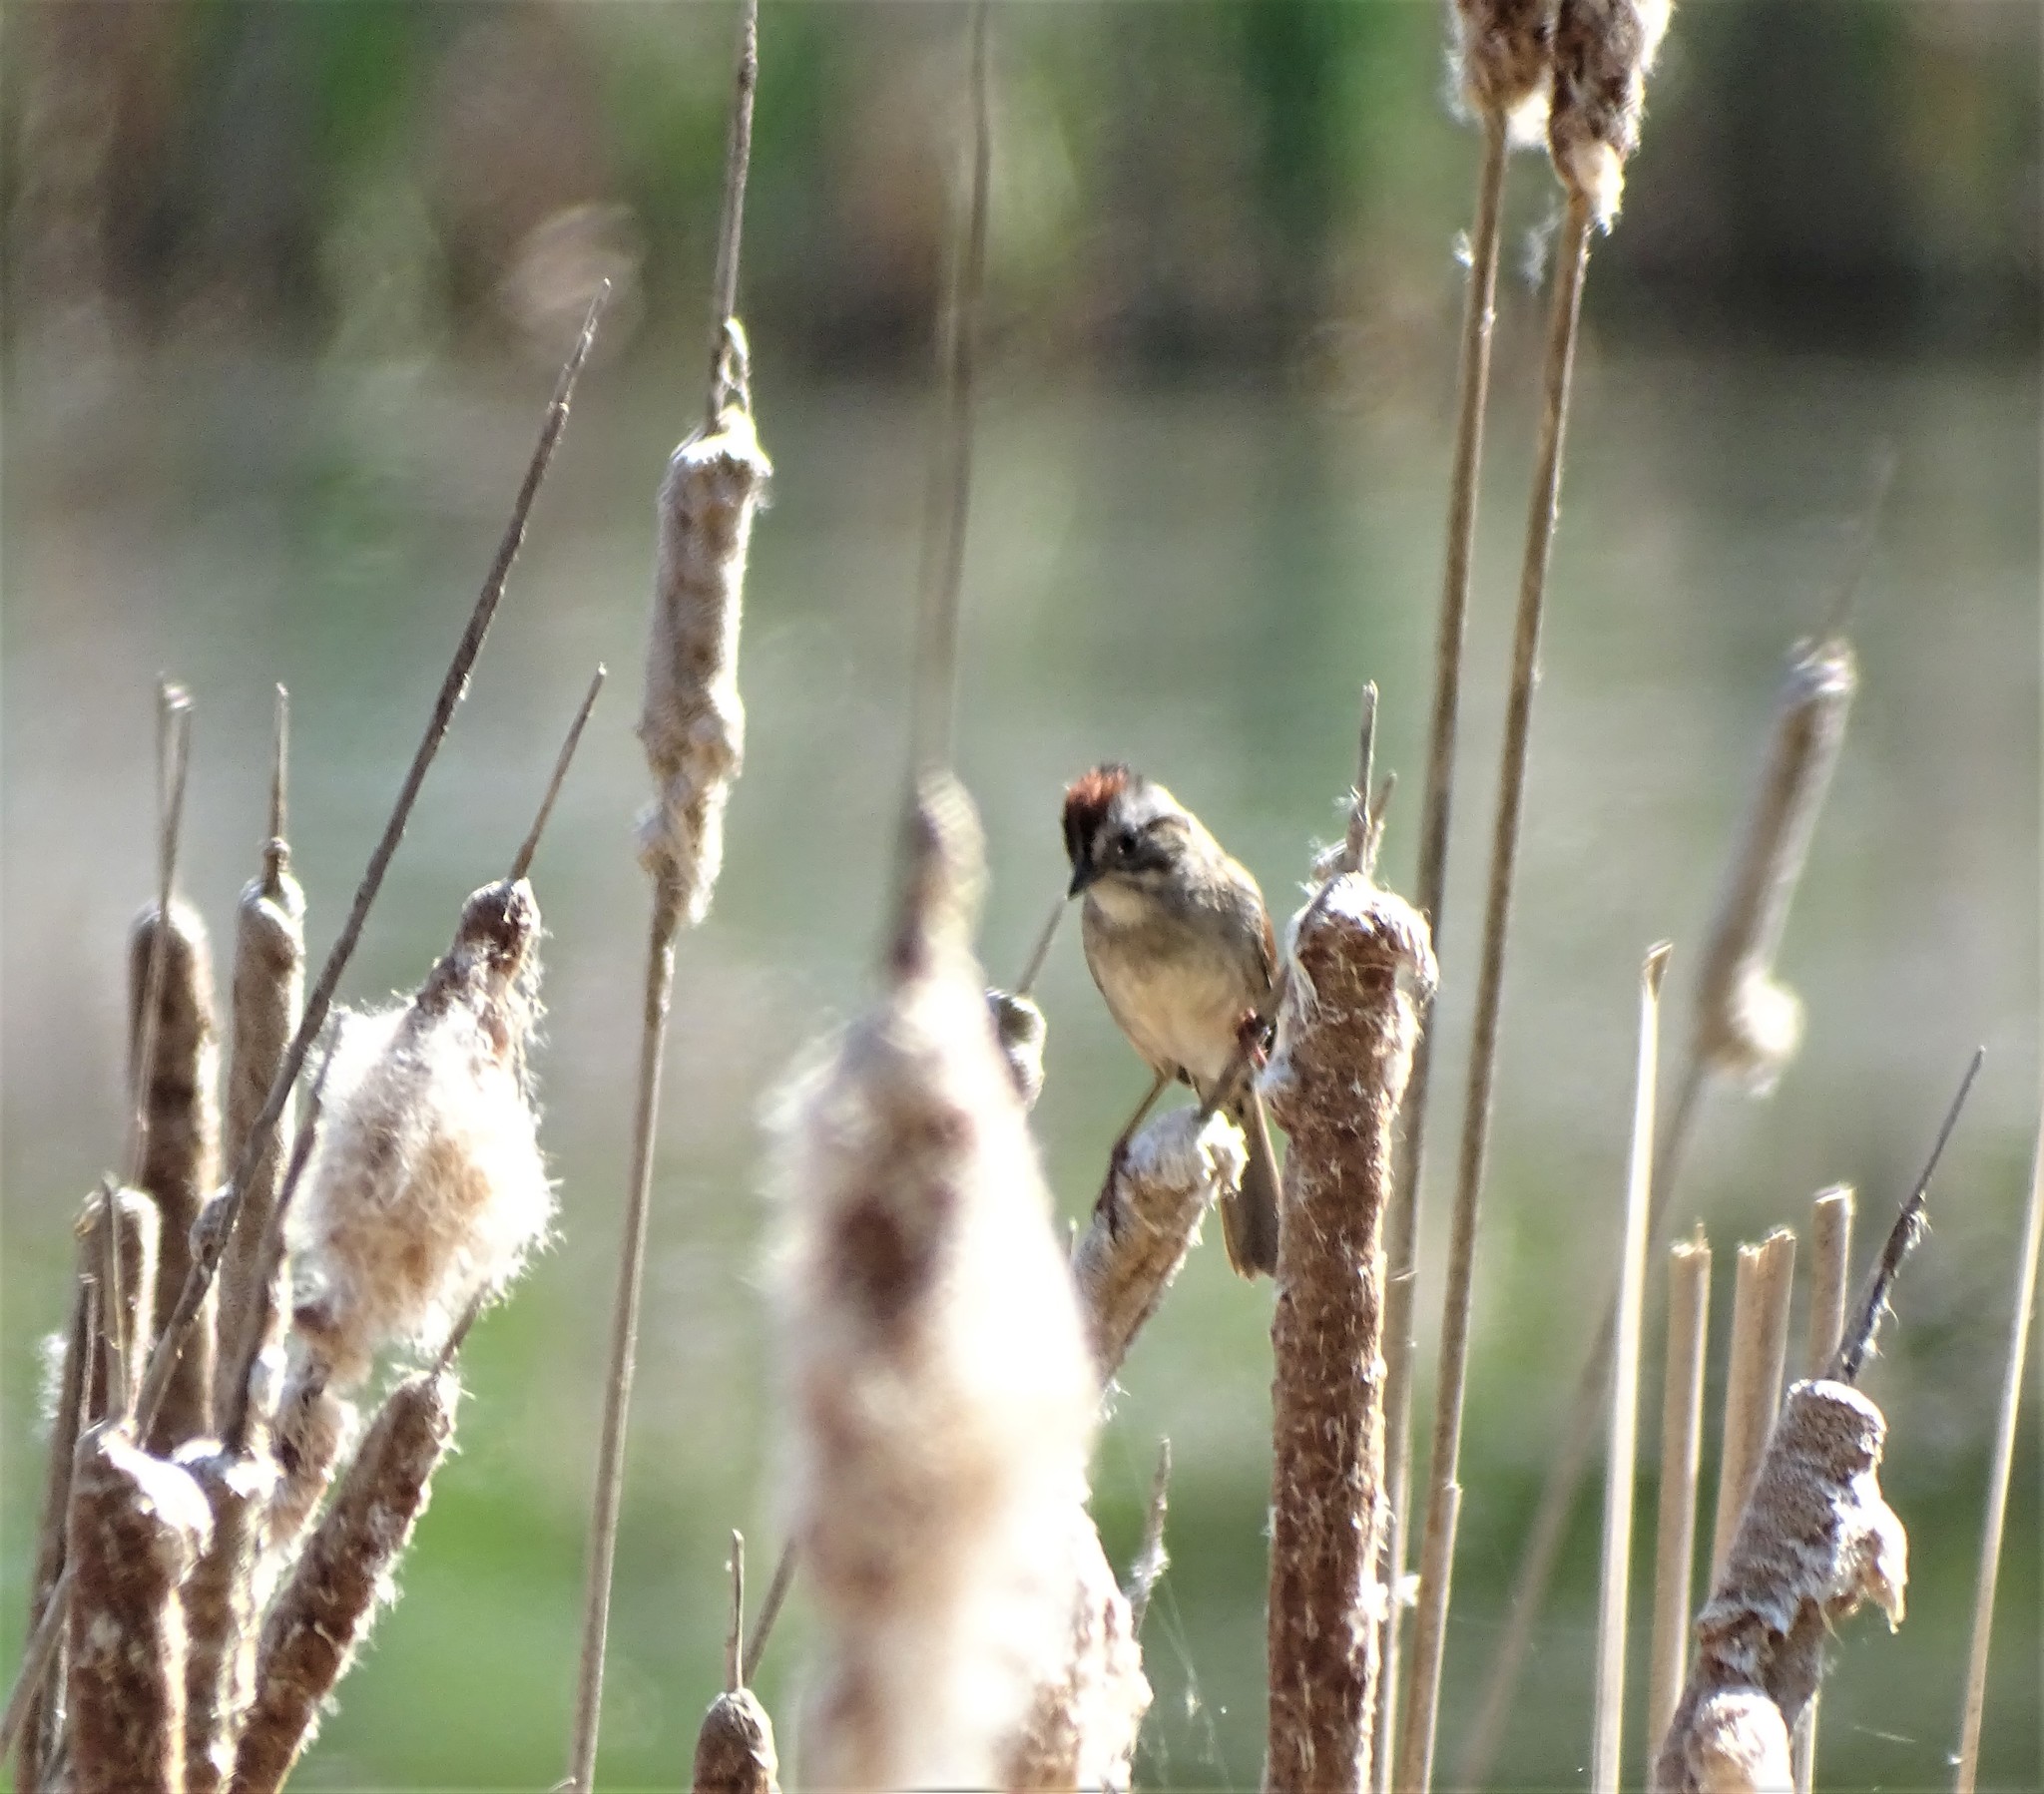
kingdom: Animalia
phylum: Chordata
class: Aves
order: Passeriformes
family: Passerellidae
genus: Melospiza
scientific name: Melospiza georgiana
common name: Swamp sparrow
